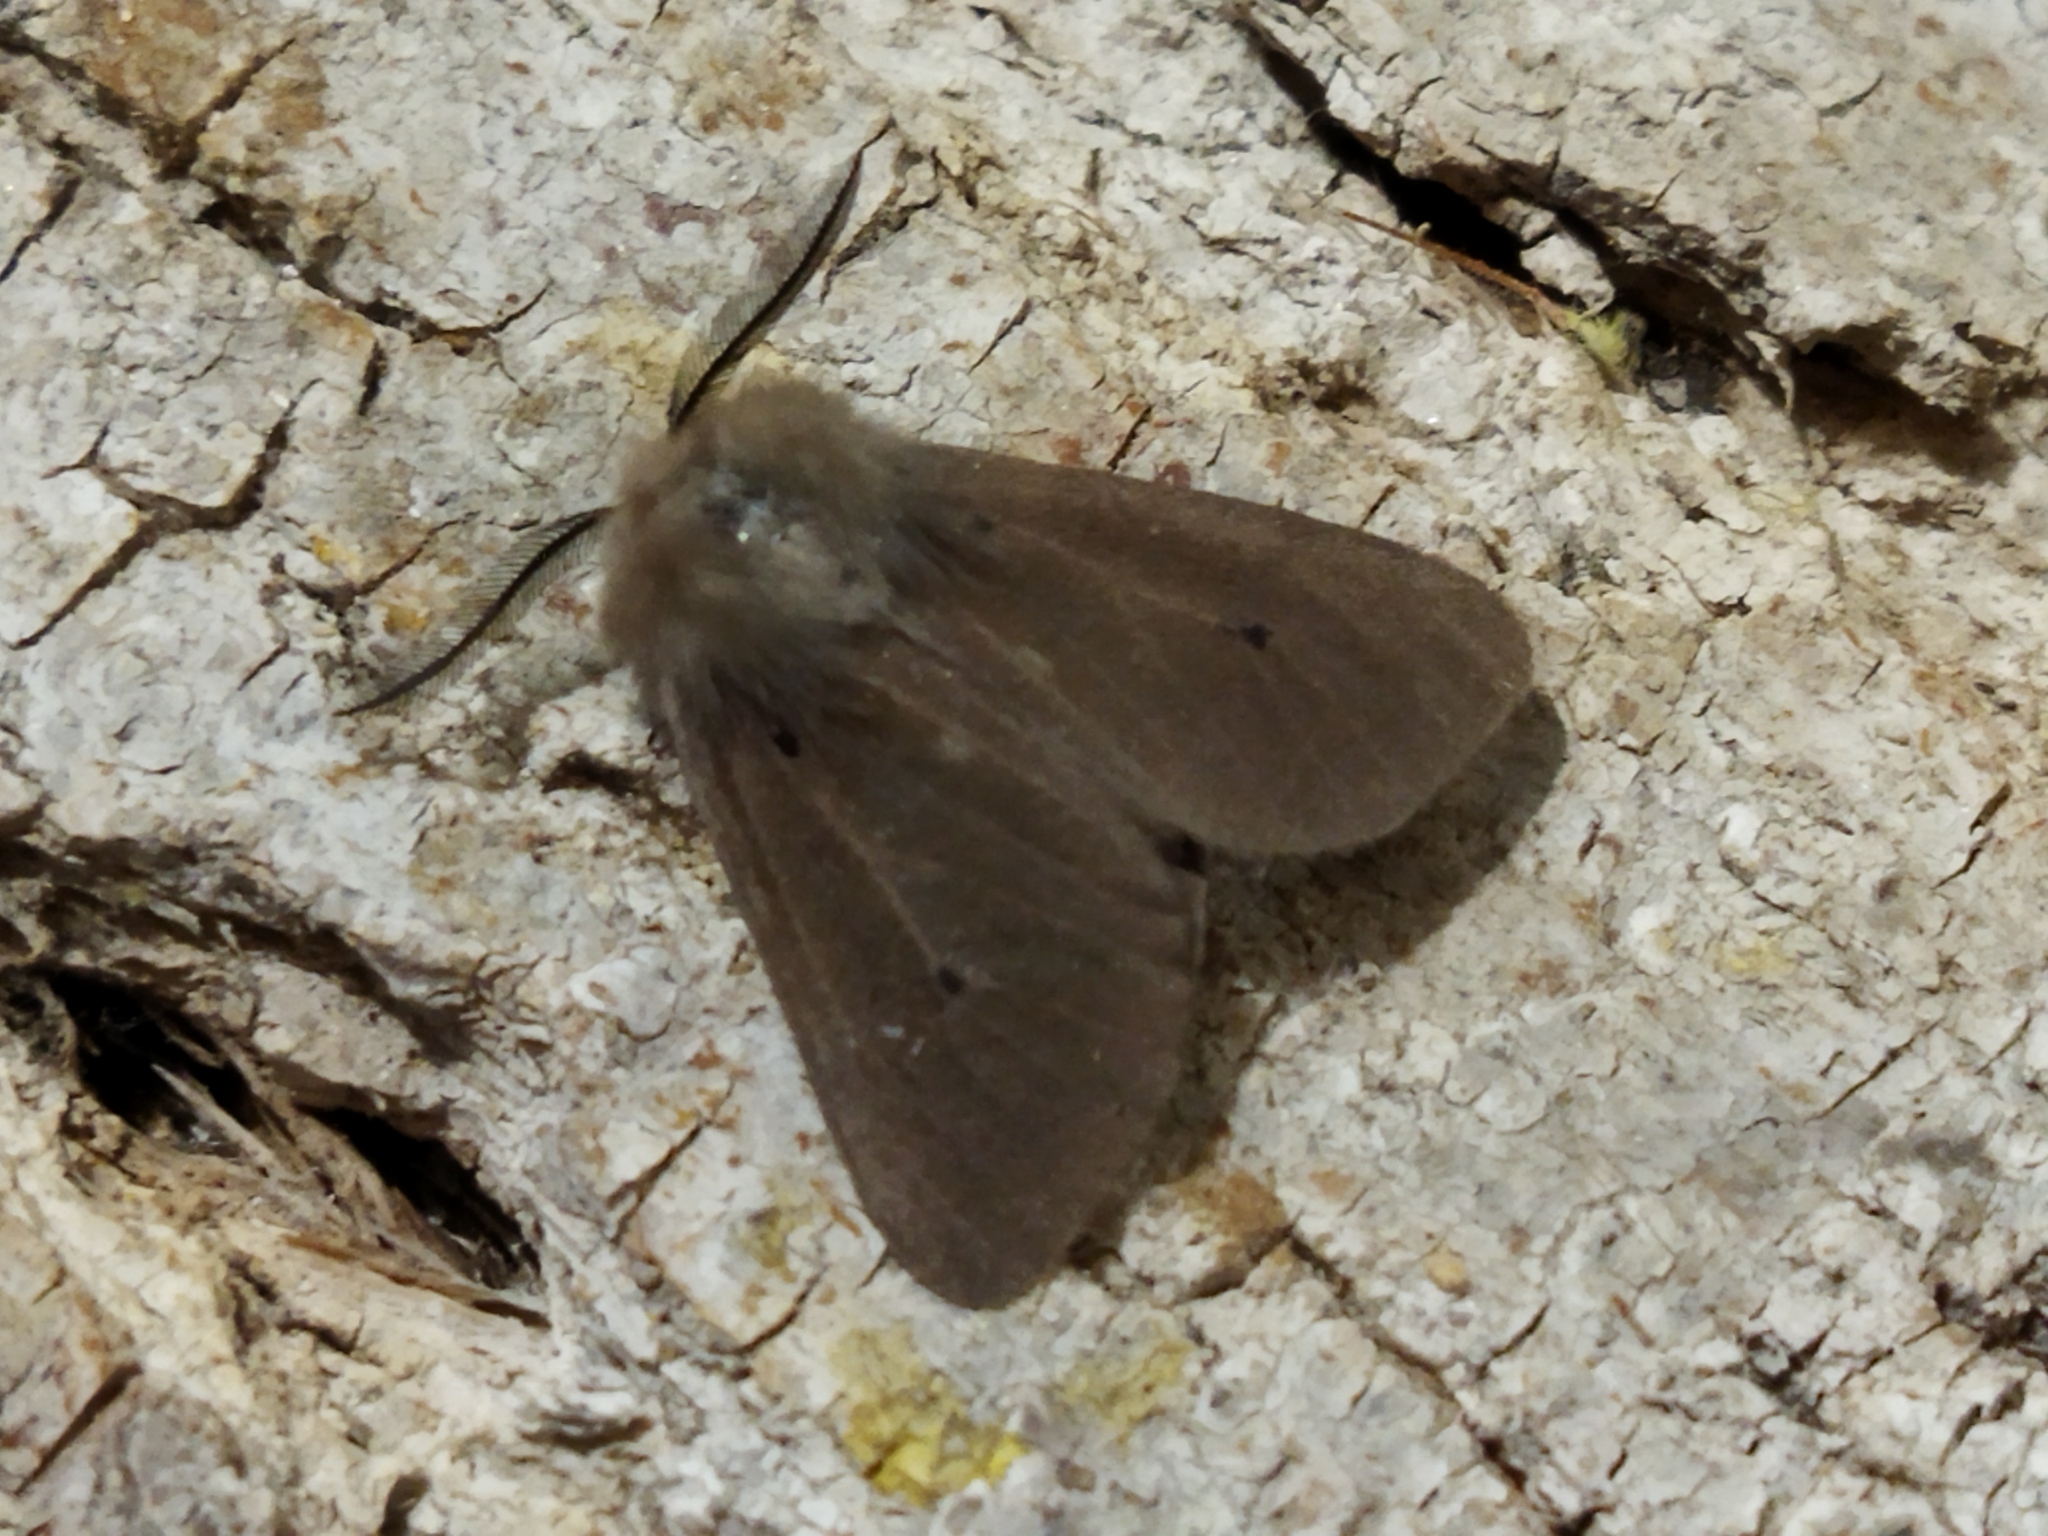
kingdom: Animalia
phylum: Arthropoda
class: Insecta
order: Lepidoptera
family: Erebidae
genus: Diaphora
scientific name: Diaphora mendica
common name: Muslin moth
